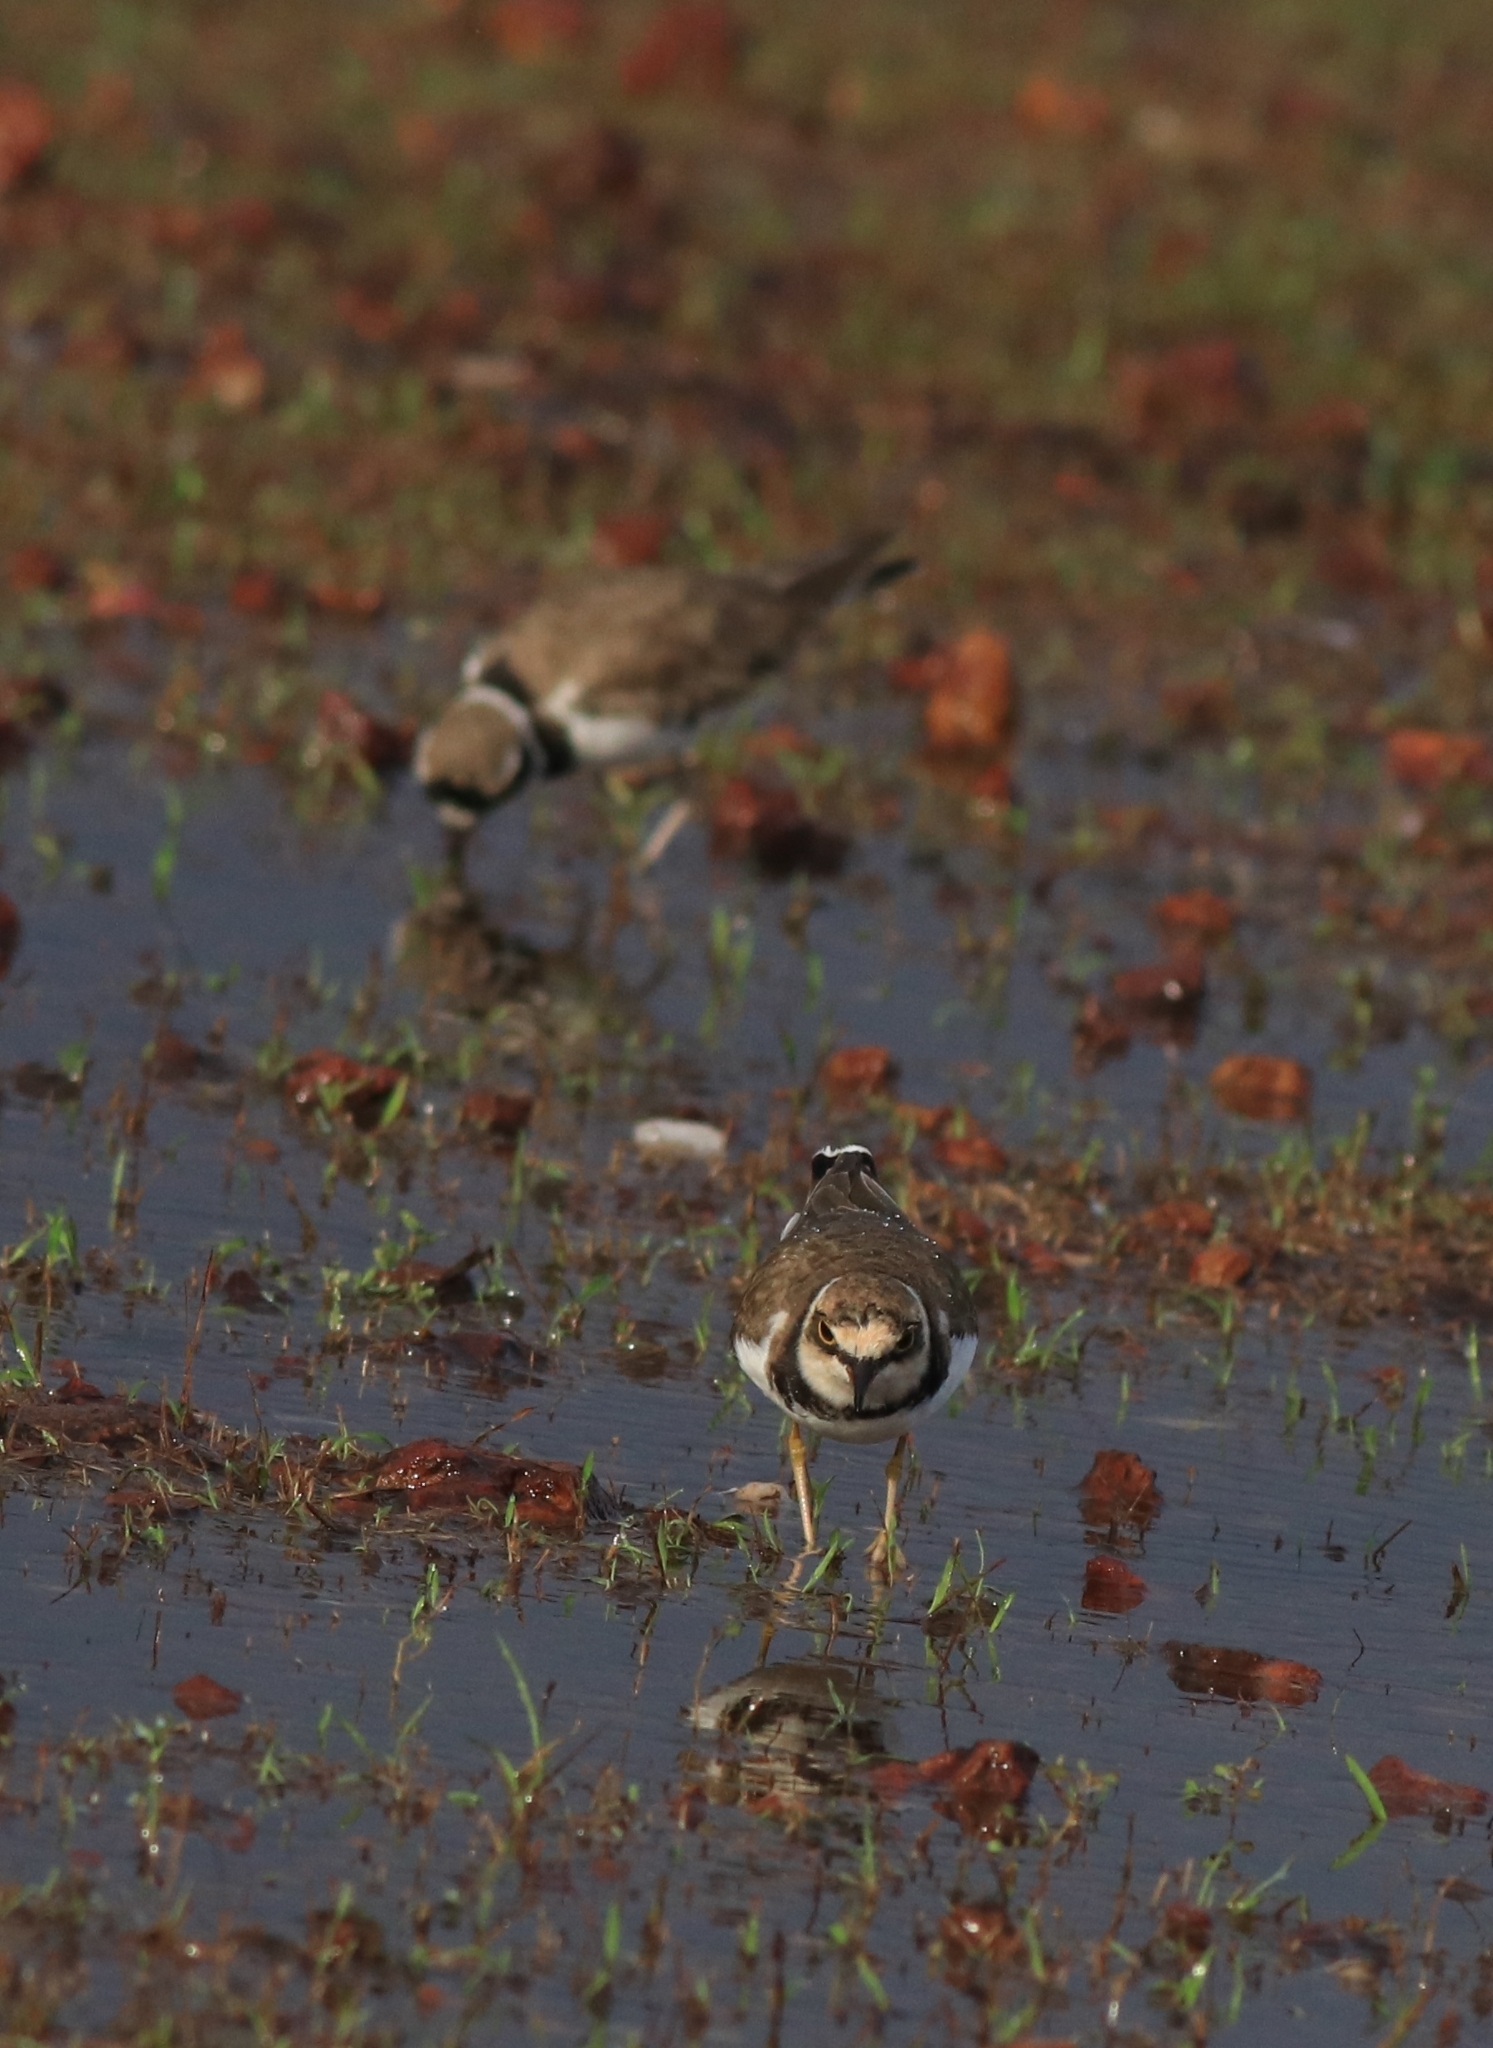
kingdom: Animalia
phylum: Chordata
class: Aves
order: Charadriiformes
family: Charadriidae
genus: Charadrius
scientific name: Charadrius dubius
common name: Little ringed plover
